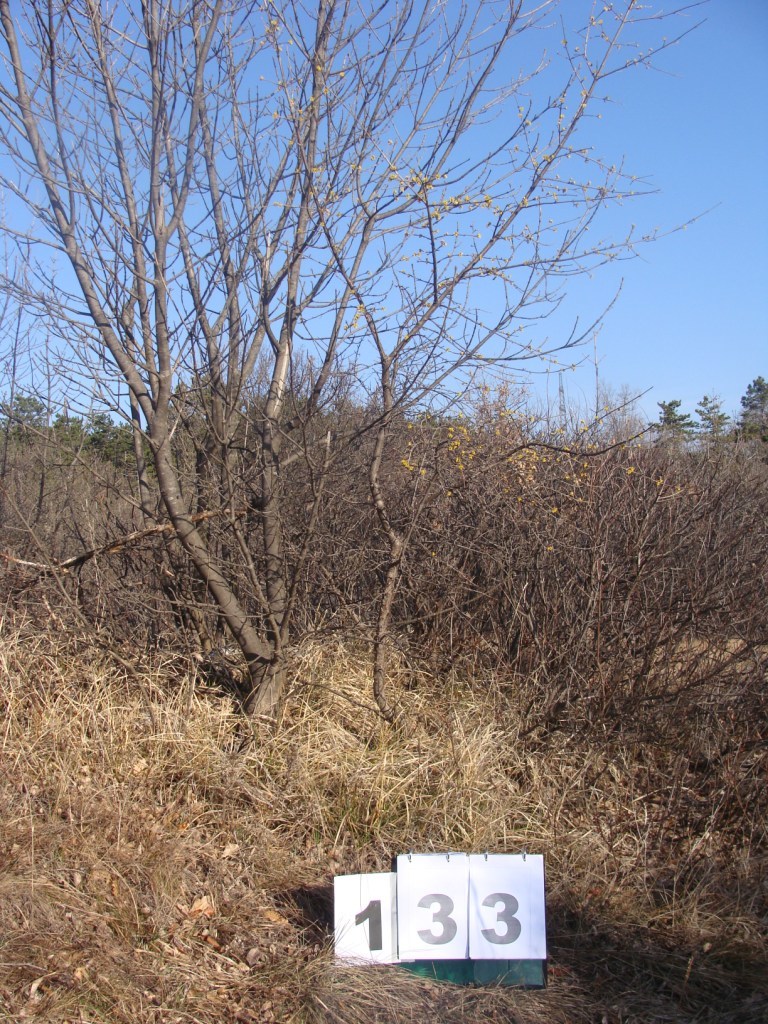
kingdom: Plantae
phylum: Tracheophyta
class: Magnoliopsida
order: Cornales
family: Cornaceae
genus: Cornus
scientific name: Cornus mas
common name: Cornelian-cherry
